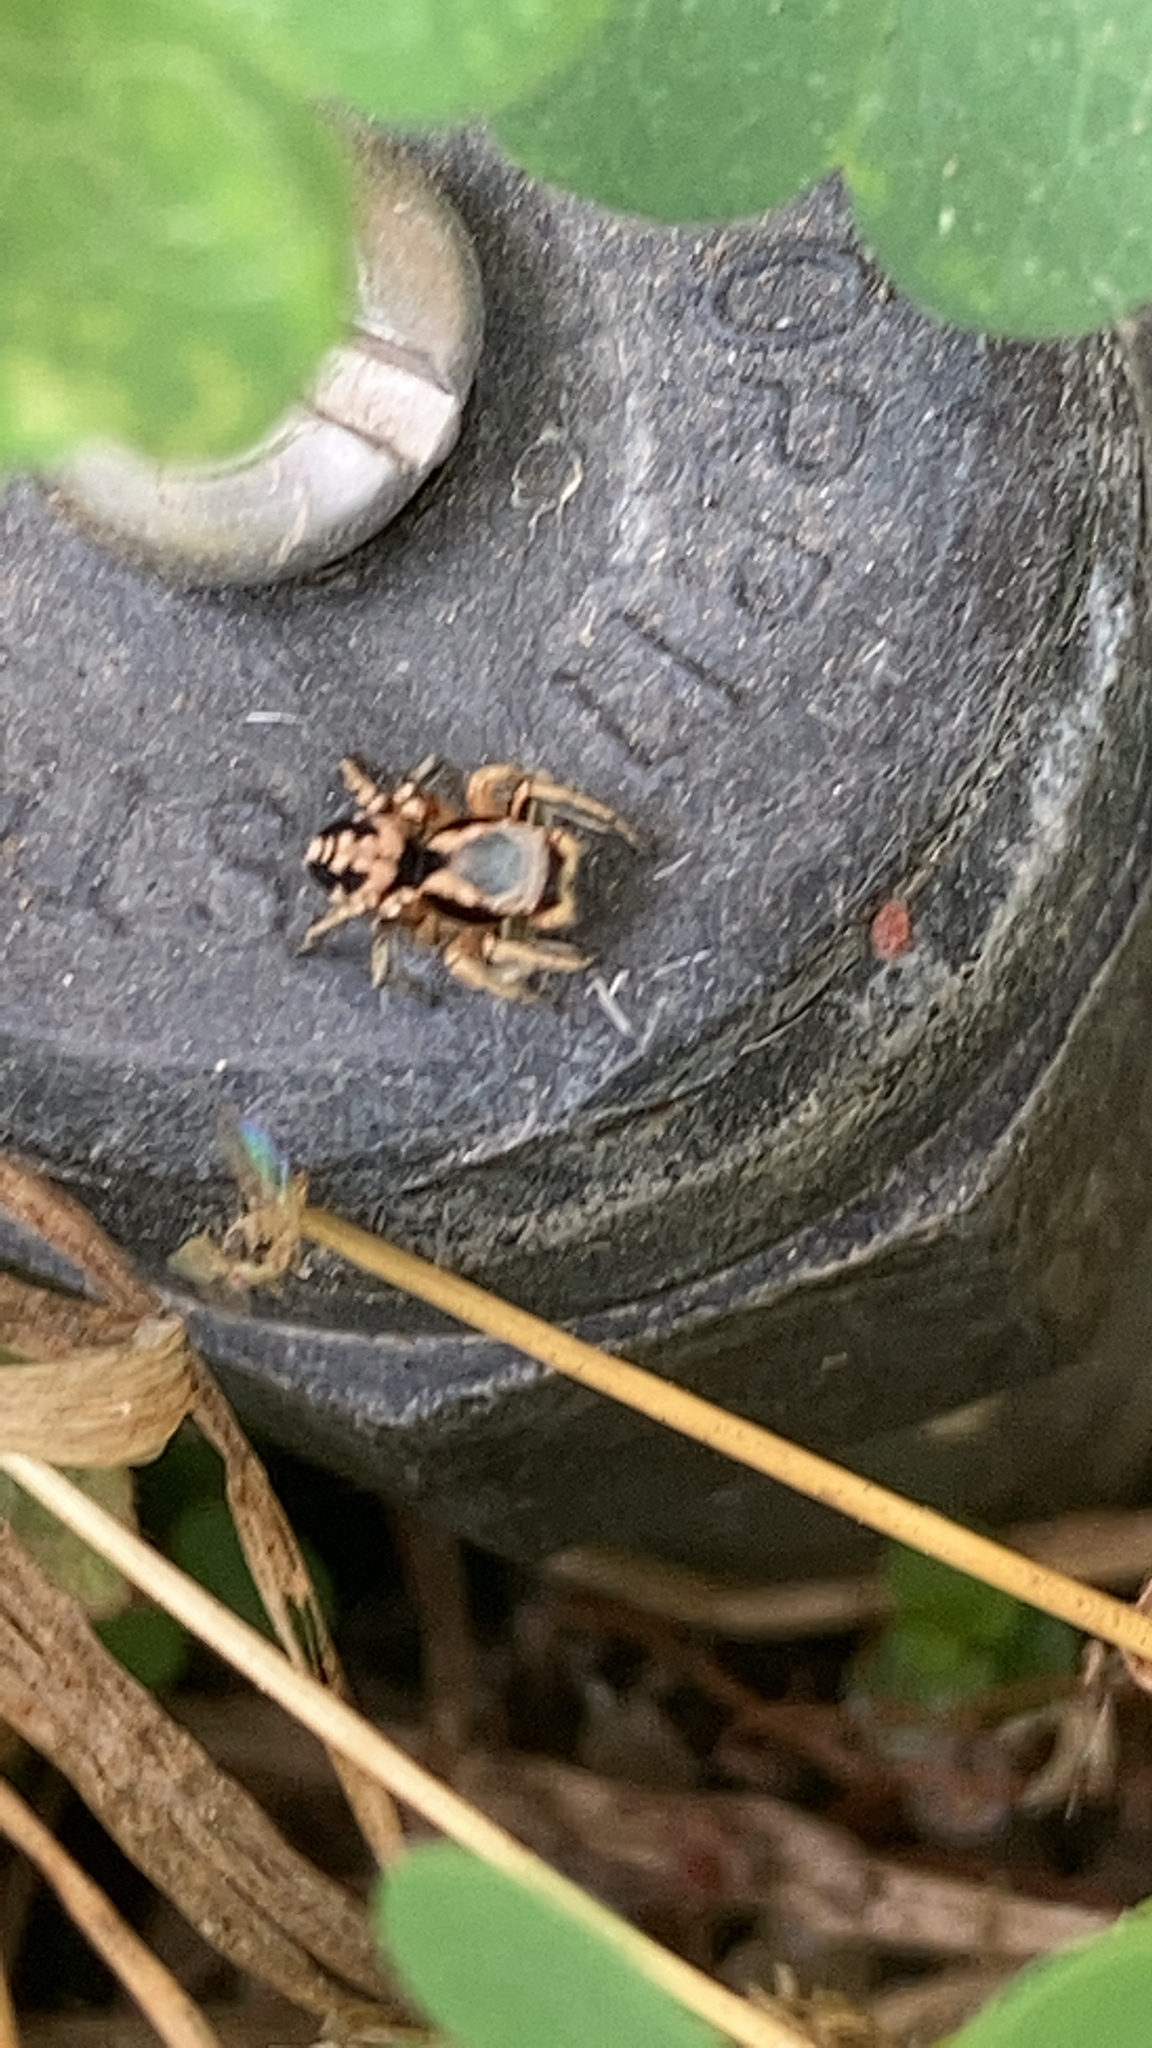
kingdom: Animalia
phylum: Arthropoda
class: Arachnida
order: Araneae
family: Salticidae
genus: Habronattus
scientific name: Habronattus pyrrithrix
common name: Jumping spider
